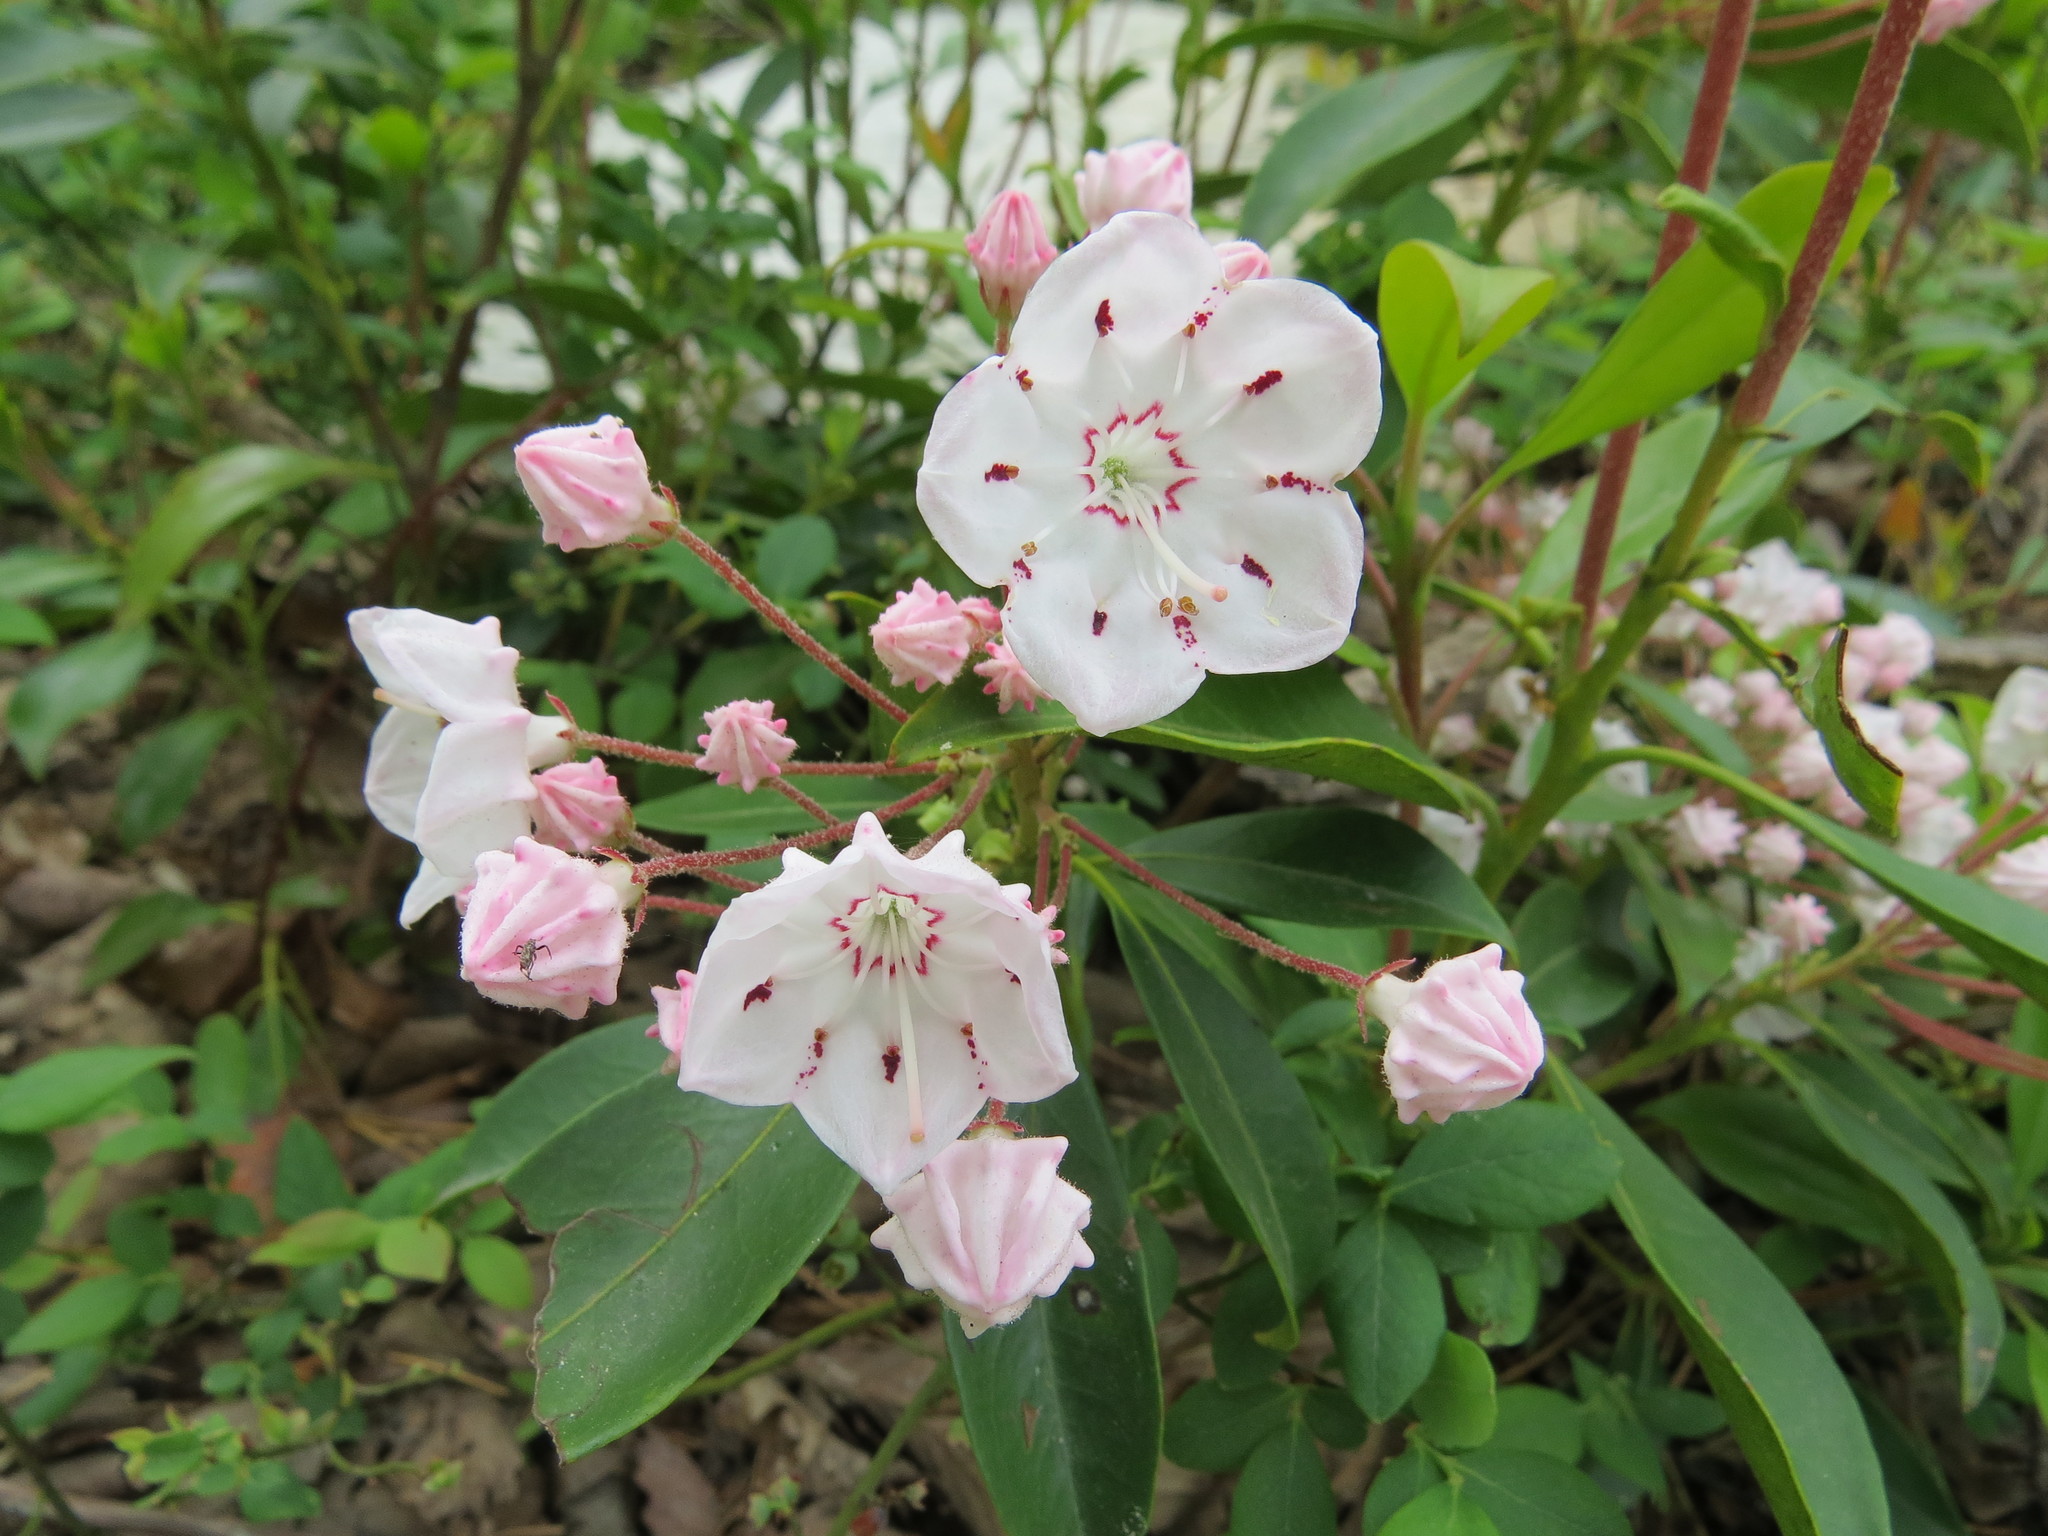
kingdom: Plantae
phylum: Tracheophyta
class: Magnoliopsida
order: Ericales
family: Ericaceae
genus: Kalmia
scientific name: Kalmia latifolia
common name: Mountain-laurel
